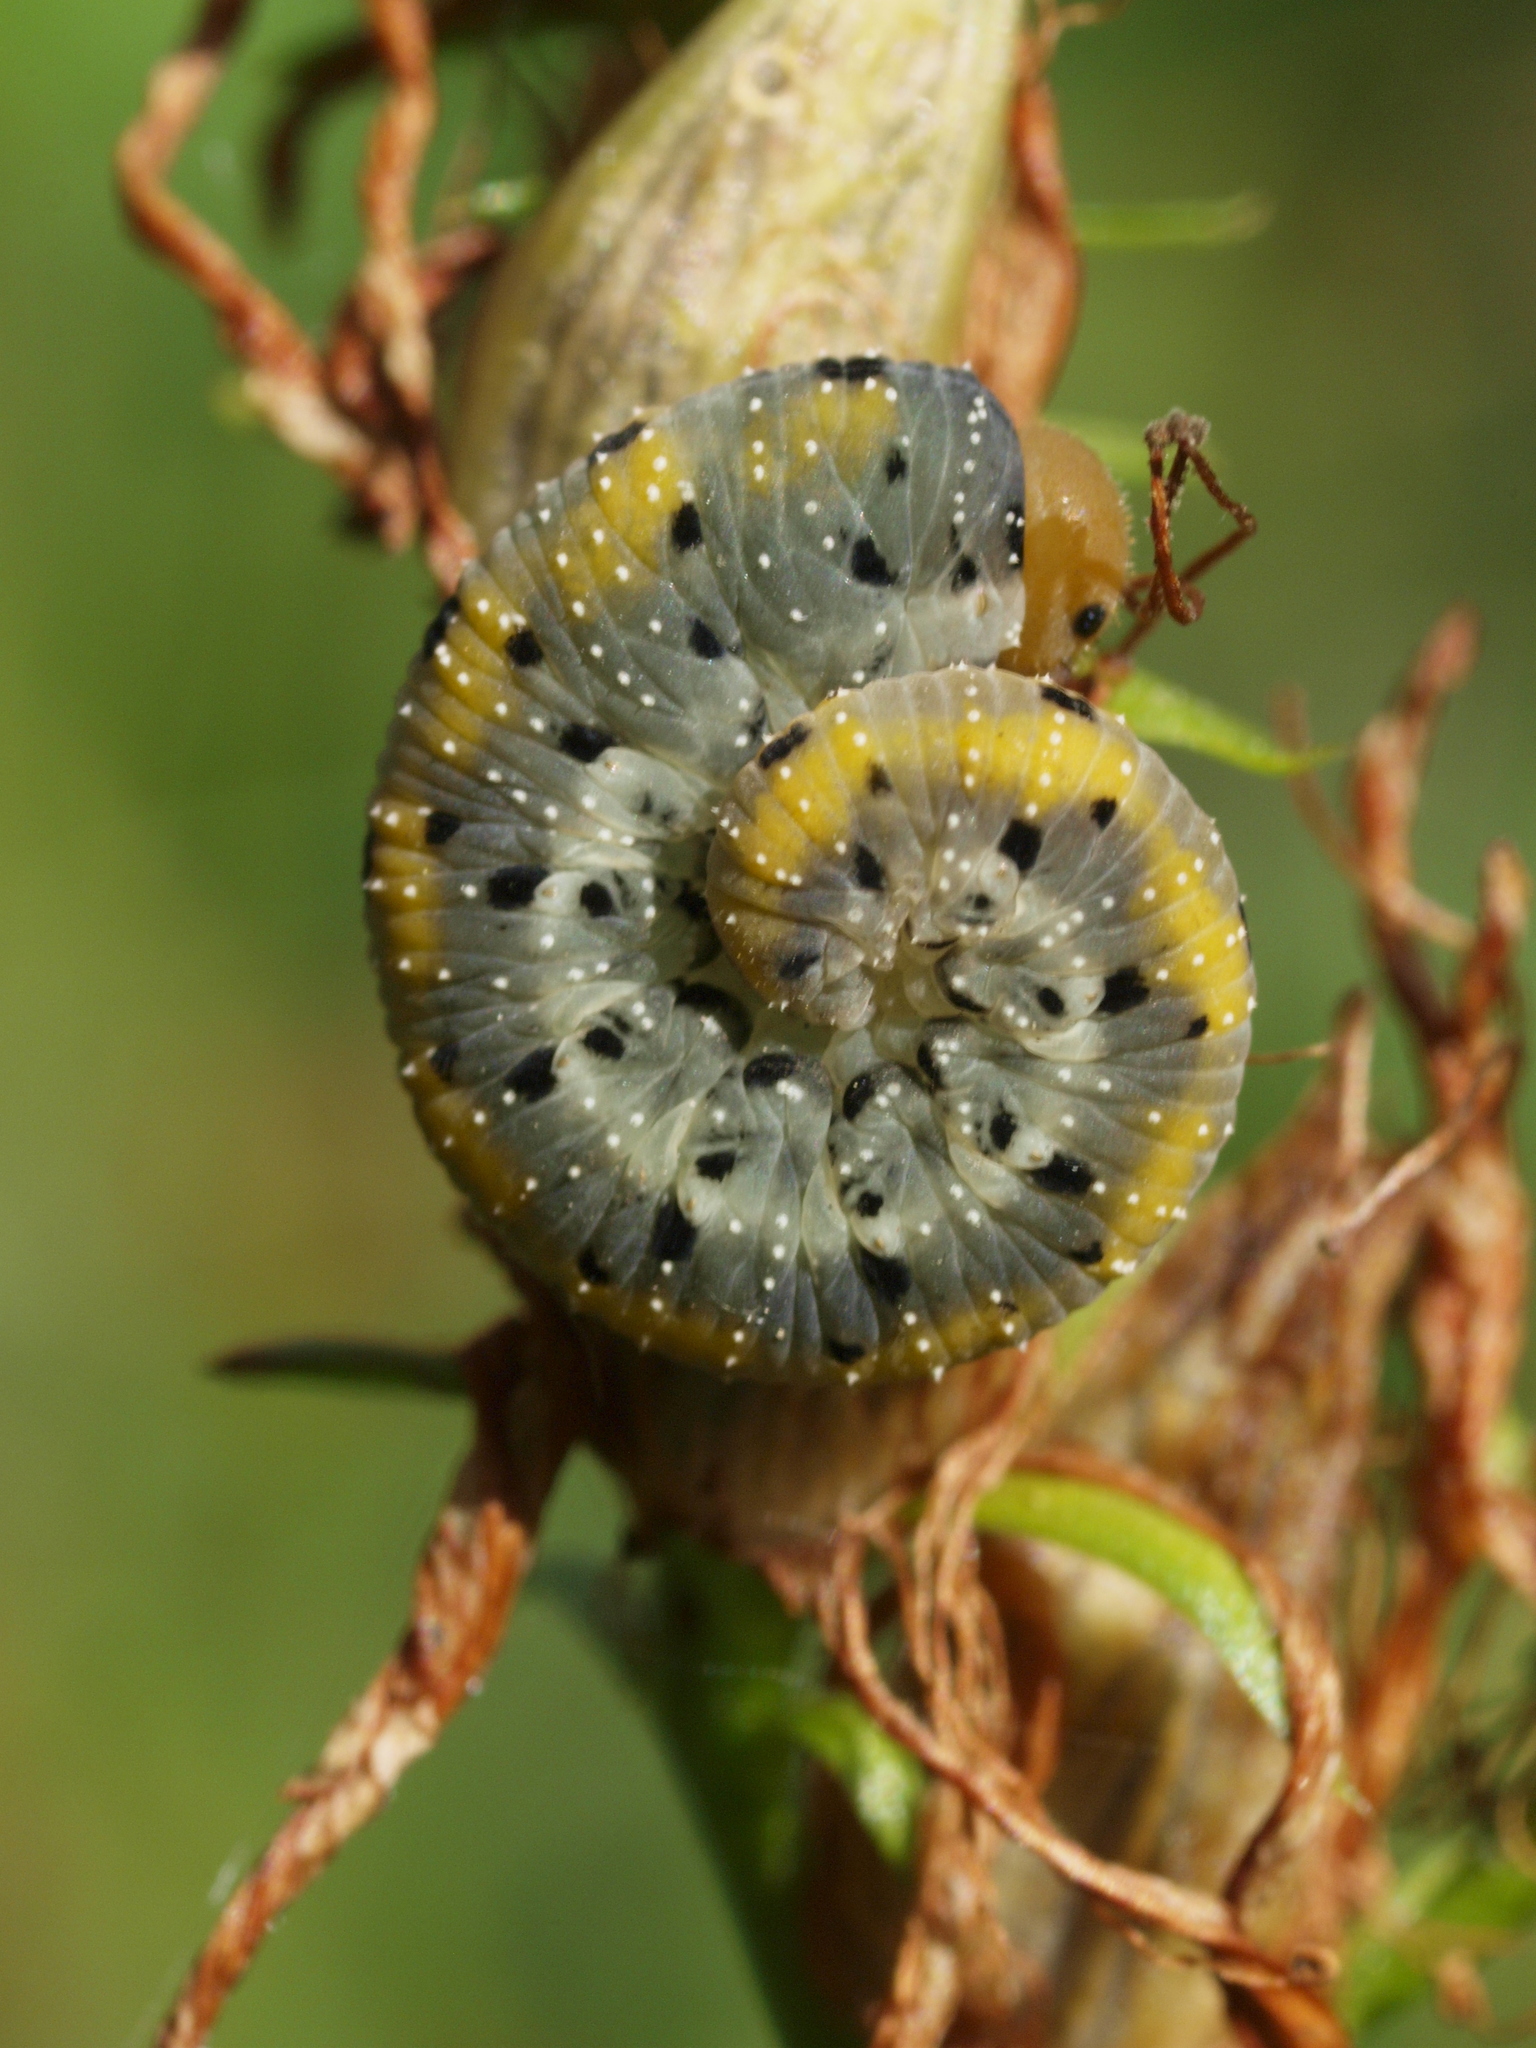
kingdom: Animalia
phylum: Arthropoda
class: Insecta
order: Hymenoptera
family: Tenthredinidae
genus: Tenthredo
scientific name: Tenthredo amoena
